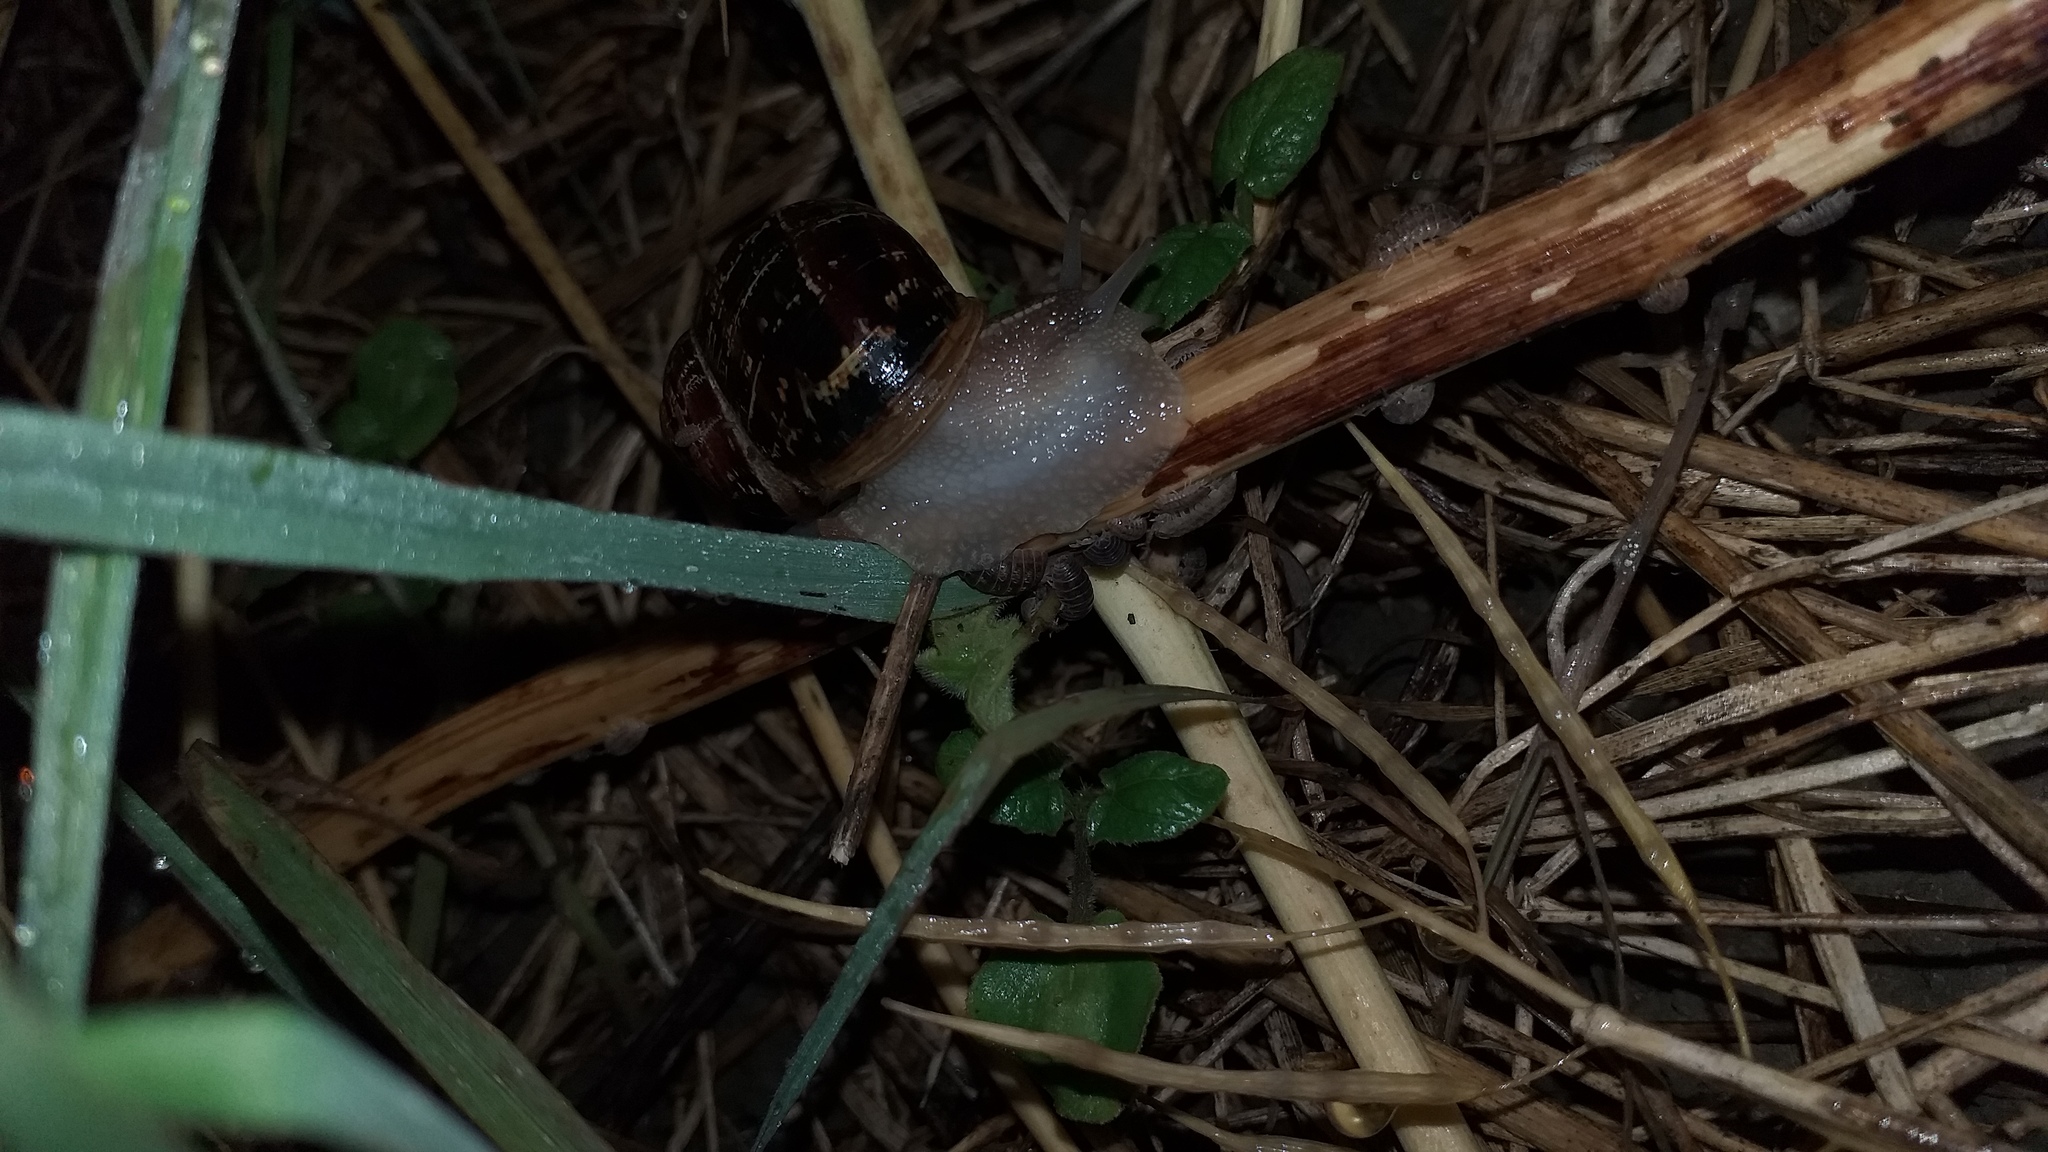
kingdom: Animalia
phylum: Mollusca
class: Gastropoda
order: Stylommatophora
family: Helicidae
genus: Cornu
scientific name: Cornu aspersum
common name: Brown garden snail
